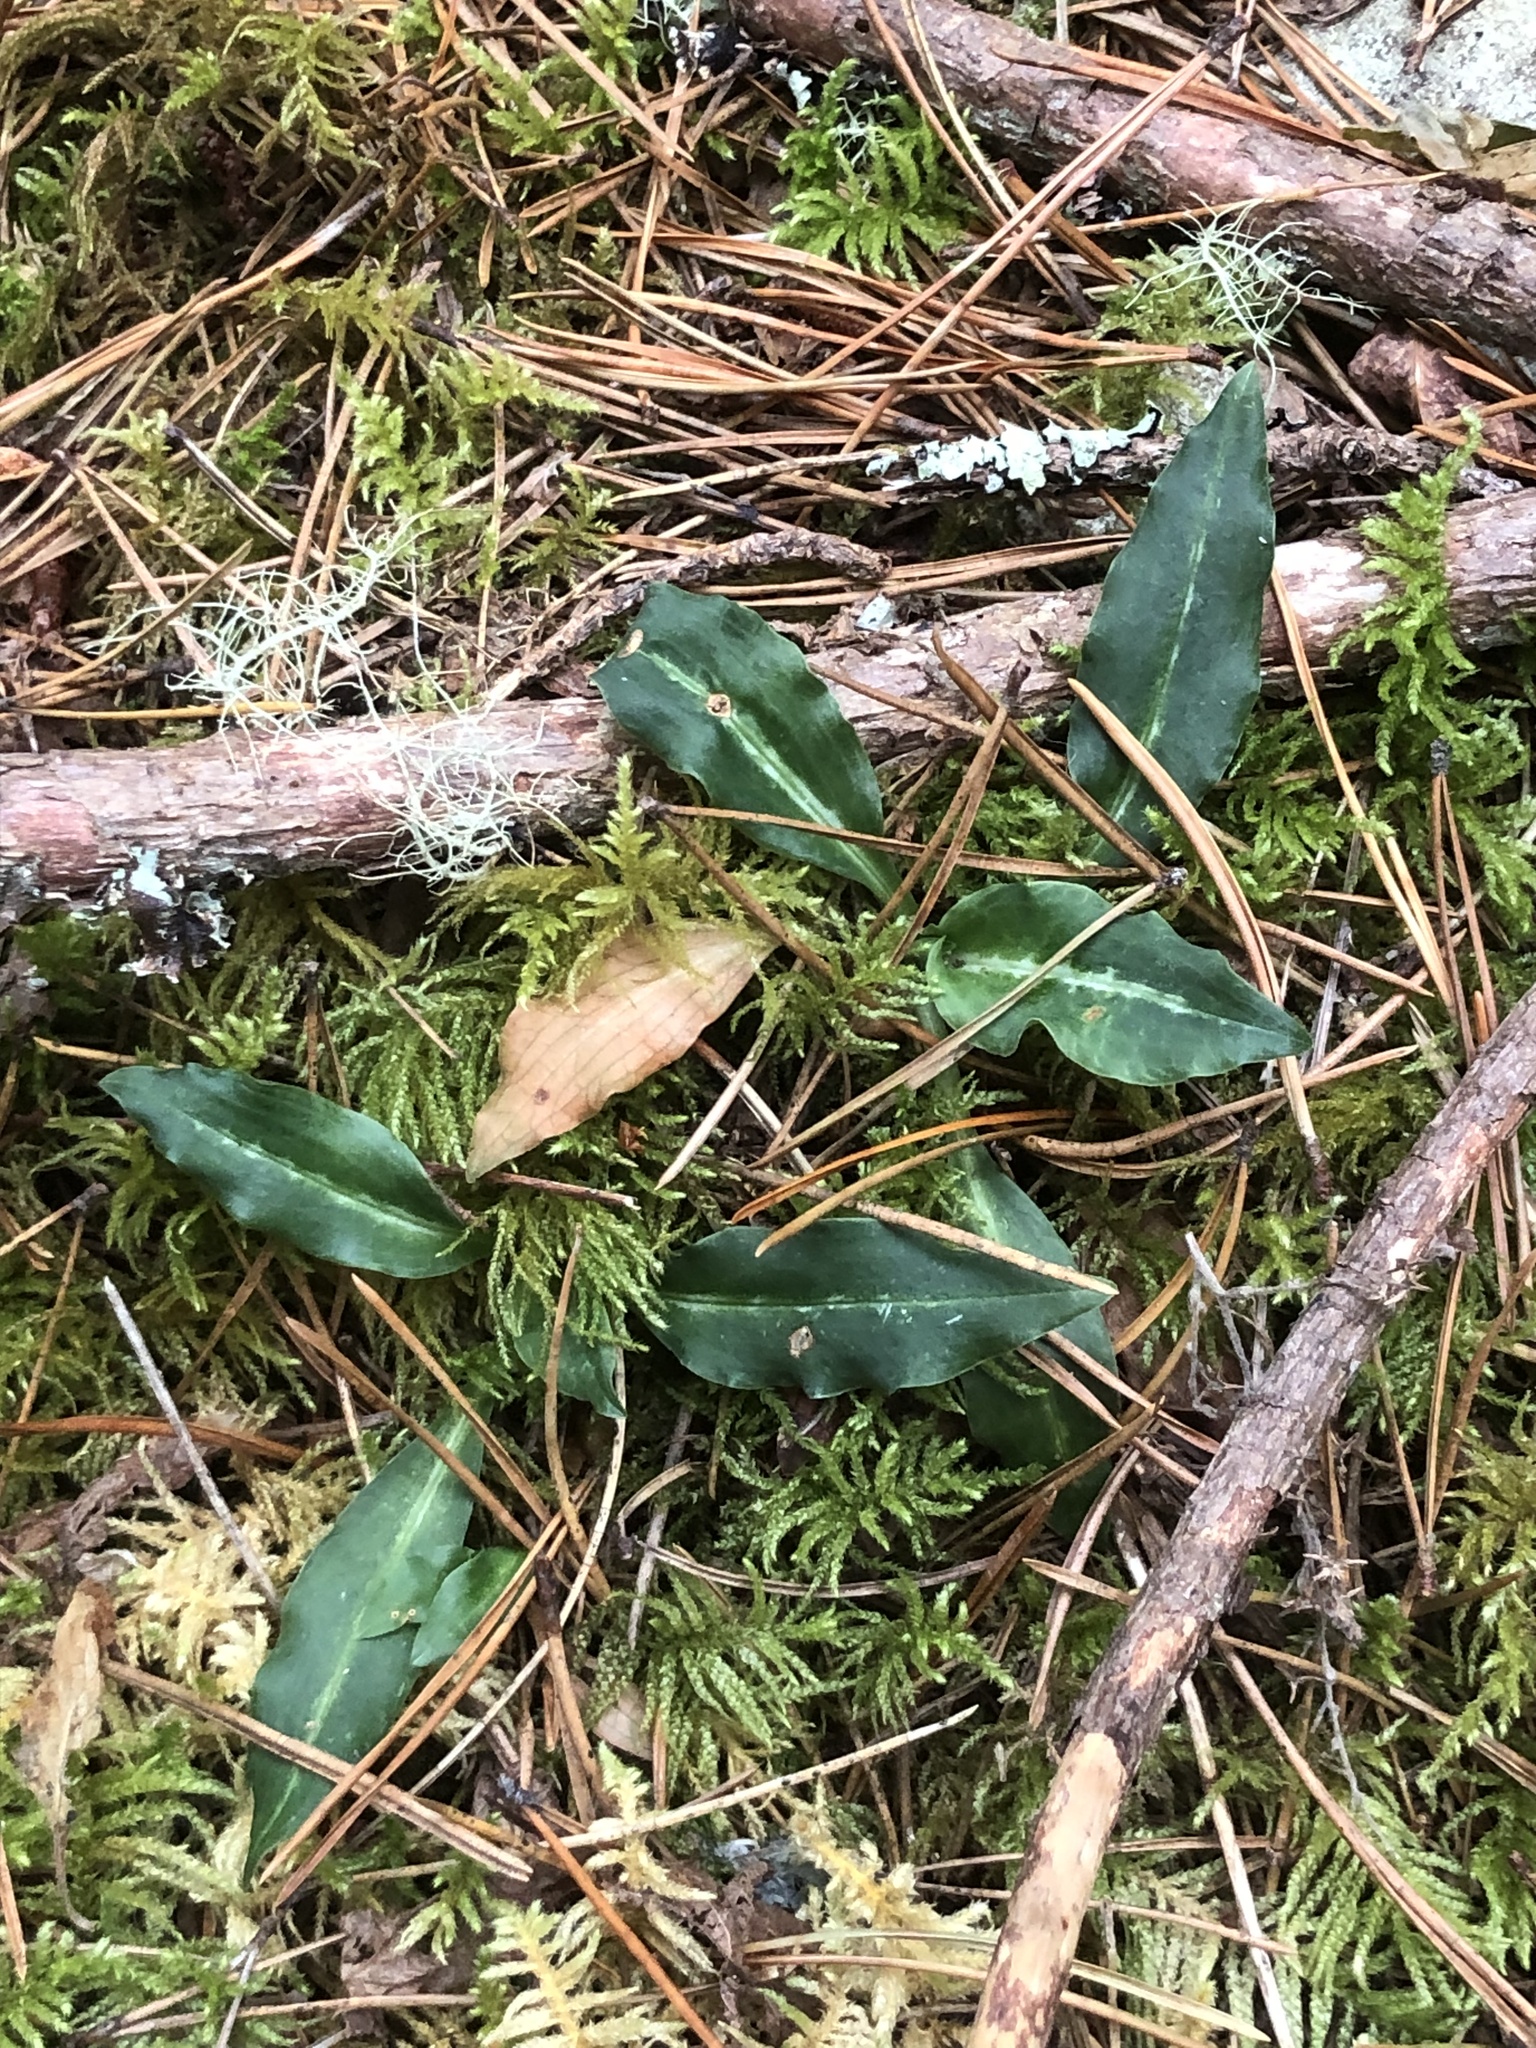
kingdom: Plantae
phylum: Tracheophyta
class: Liliopsida
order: Asparagales
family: Orchidaceae
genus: Goodyera
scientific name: Goodyera oblongifolia
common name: Giant rattlesnake-plantain
